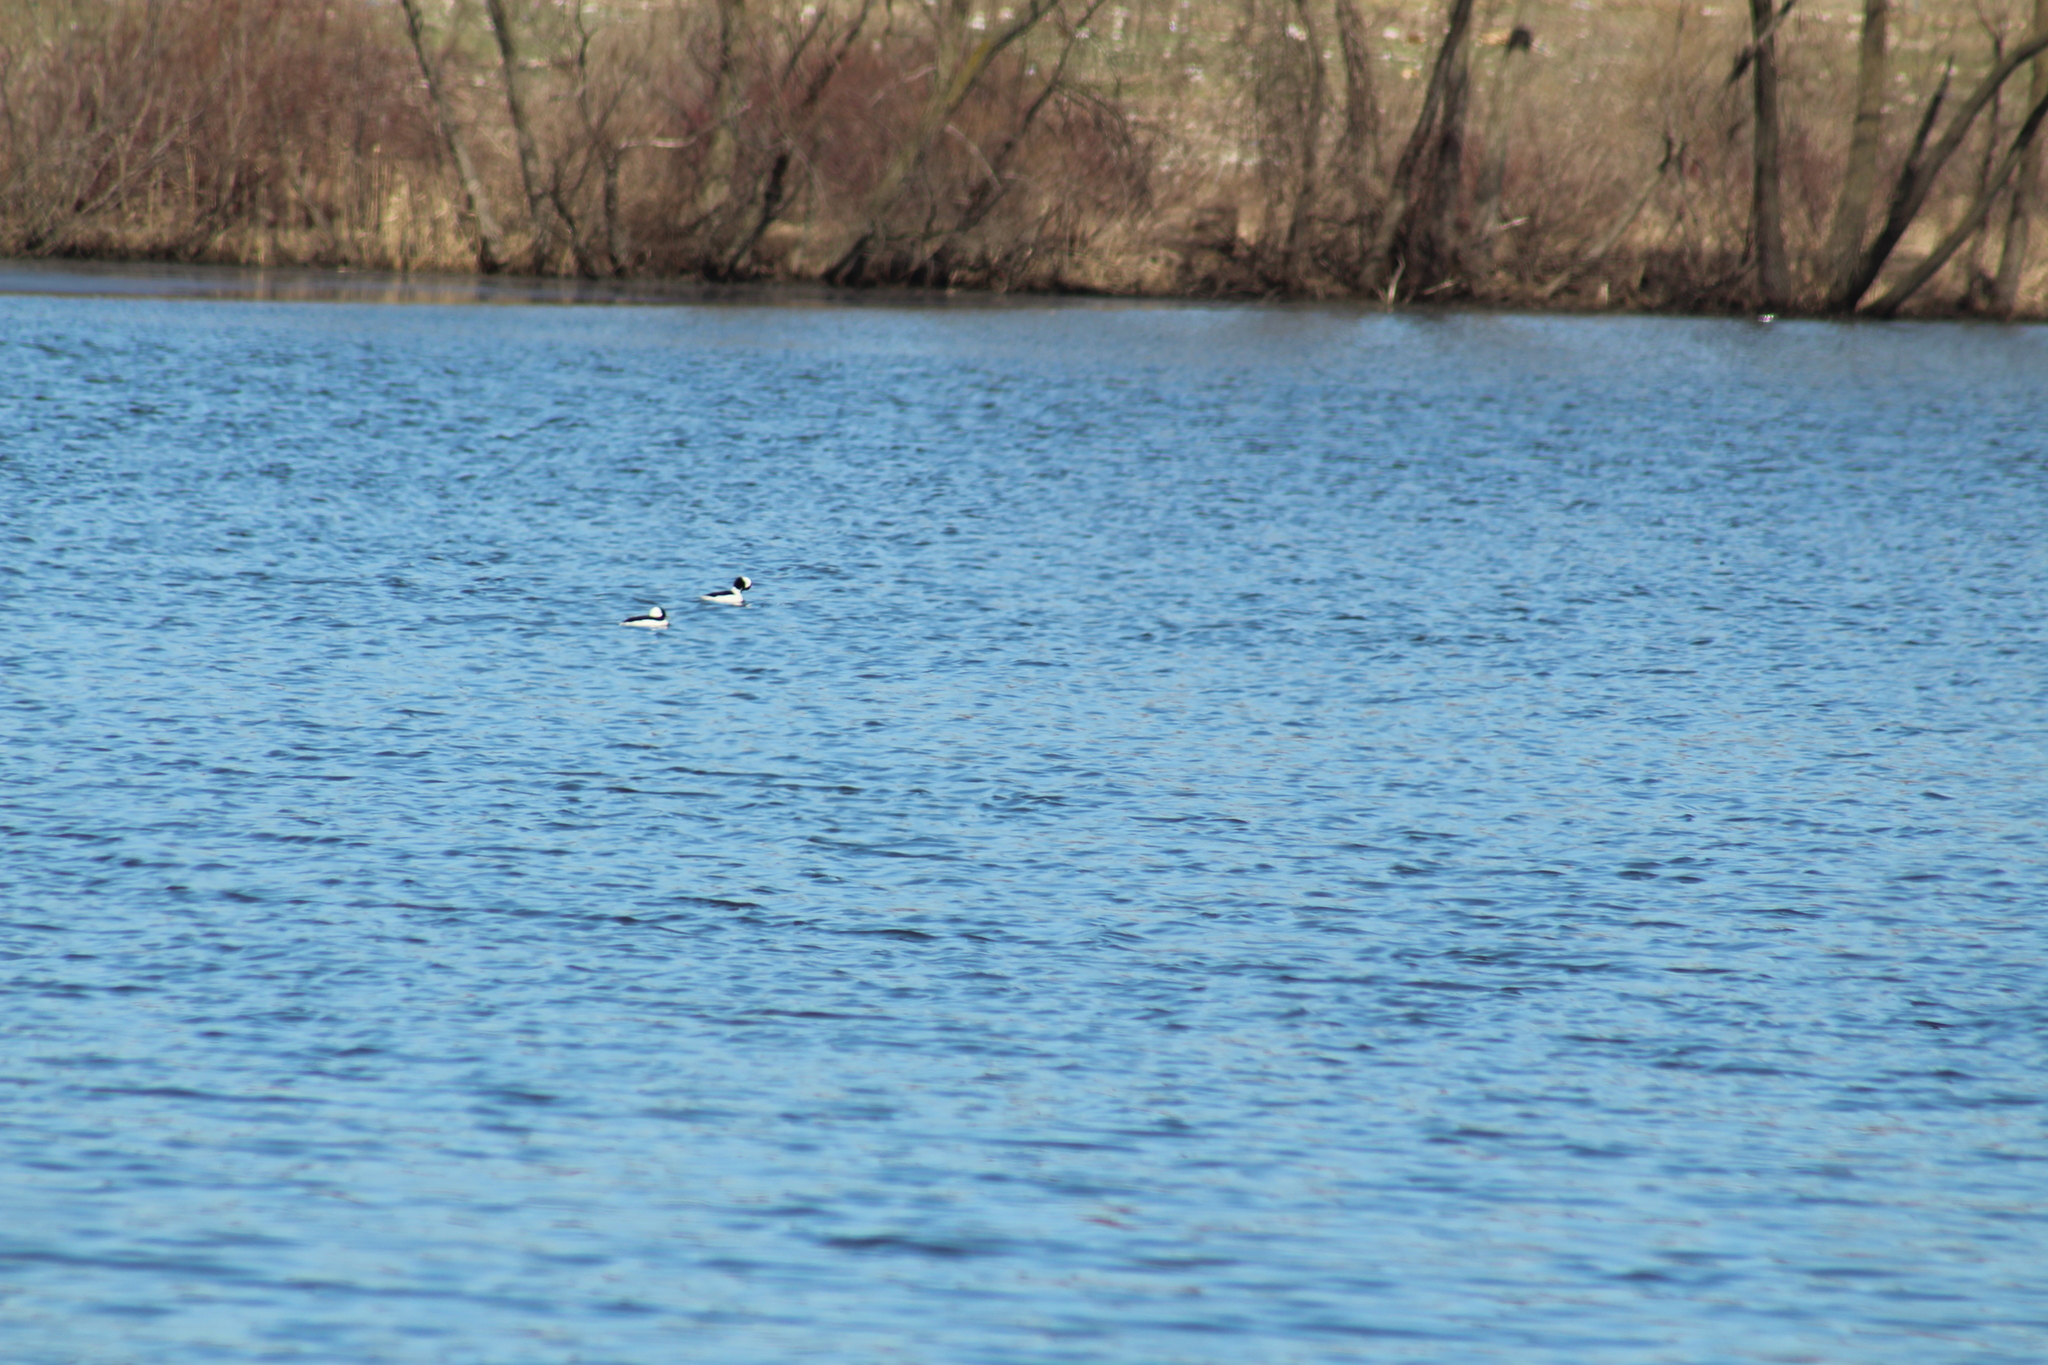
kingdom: Animalia
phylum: Chordata
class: Aves
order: Anseriformes
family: Anatidae
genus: Bucephala
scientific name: Bucephala albeola
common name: Bufflehead
